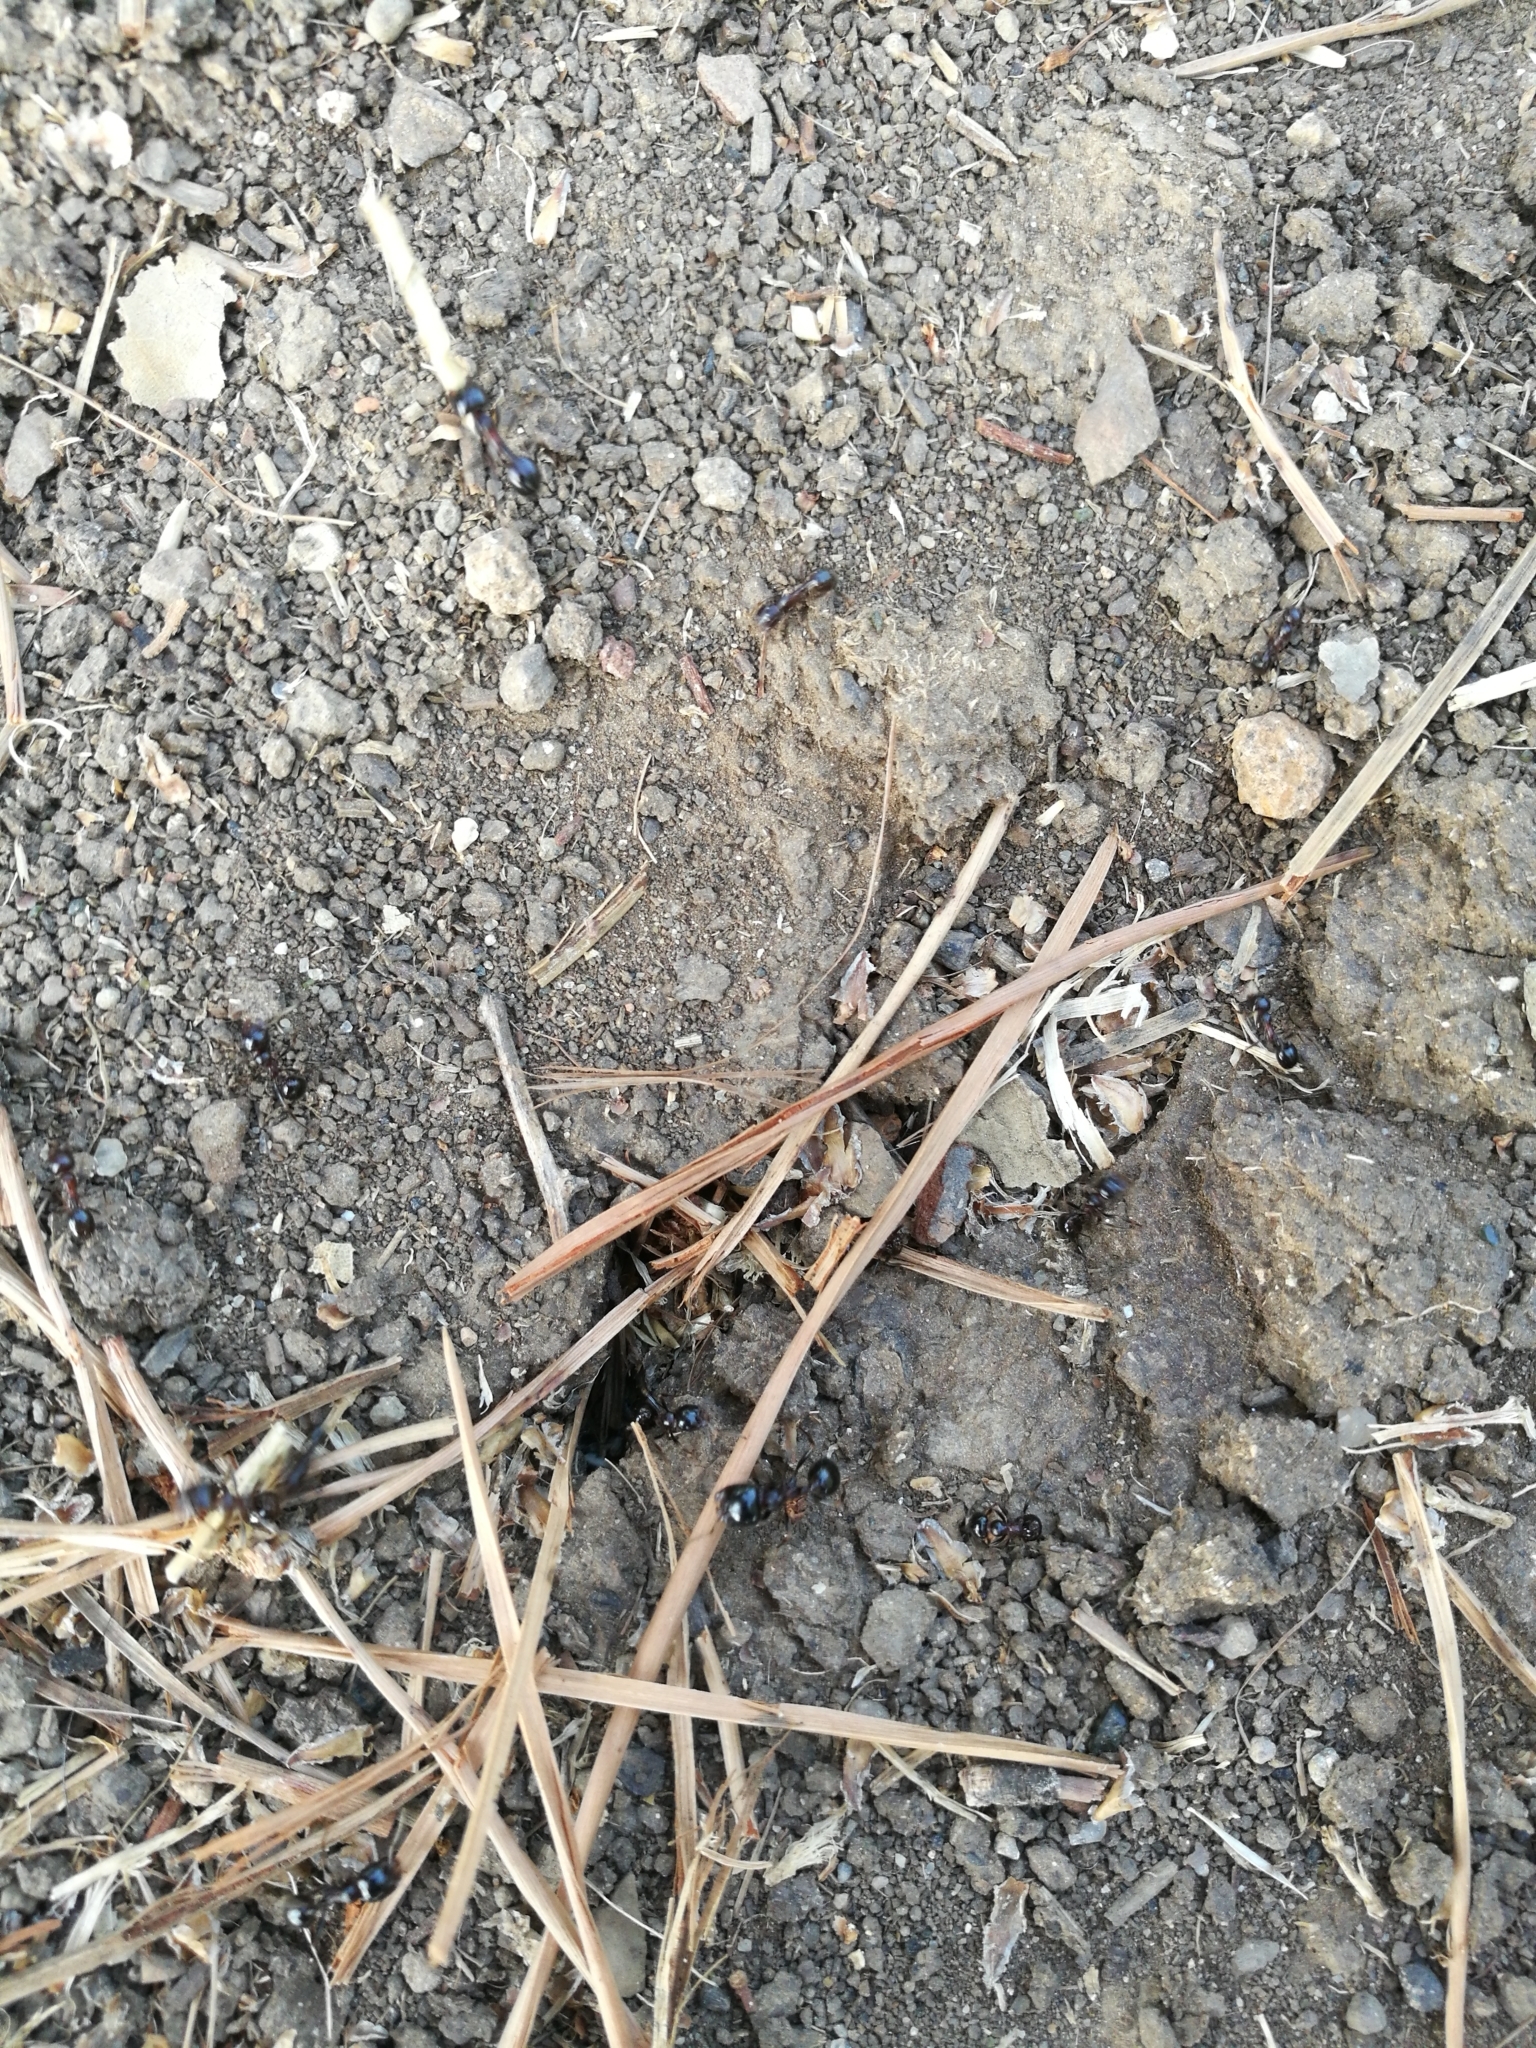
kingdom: Animalia
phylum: Arthropoda
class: Insecta
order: Hymenoptera
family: Formicidae
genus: Messor
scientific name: Messor wasmanni
